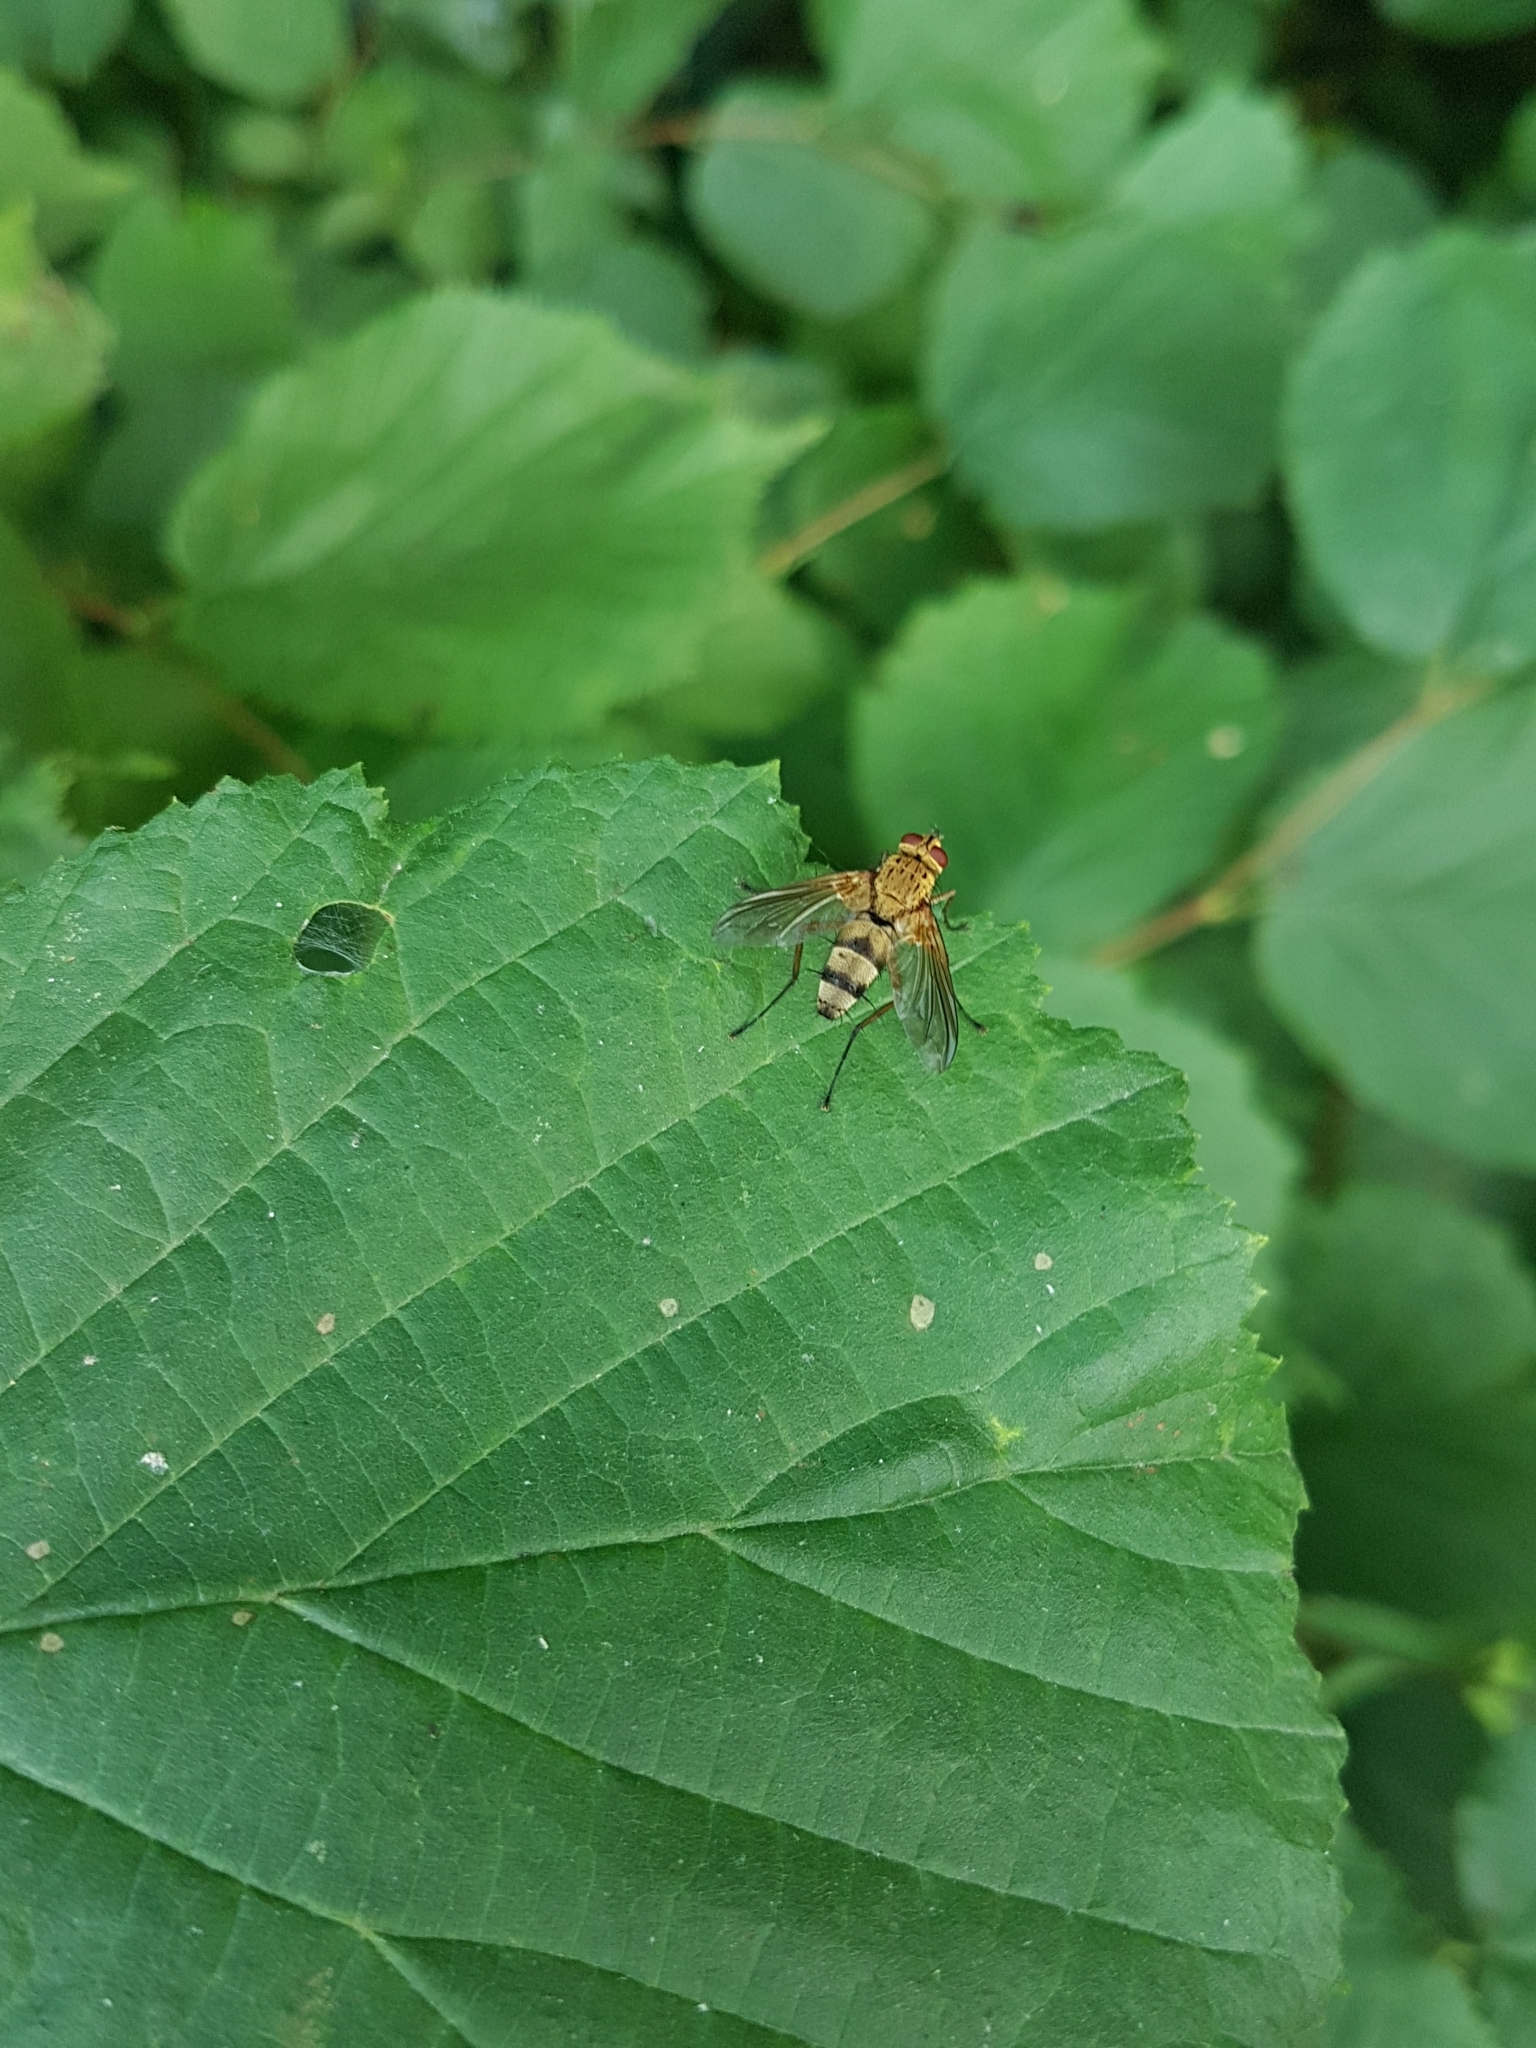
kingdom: Animalia
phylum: Arthropoda
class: Insecta
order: Diptera
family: Tachinidae
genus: Dexiosoma
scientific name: Dexiosoma caninum
